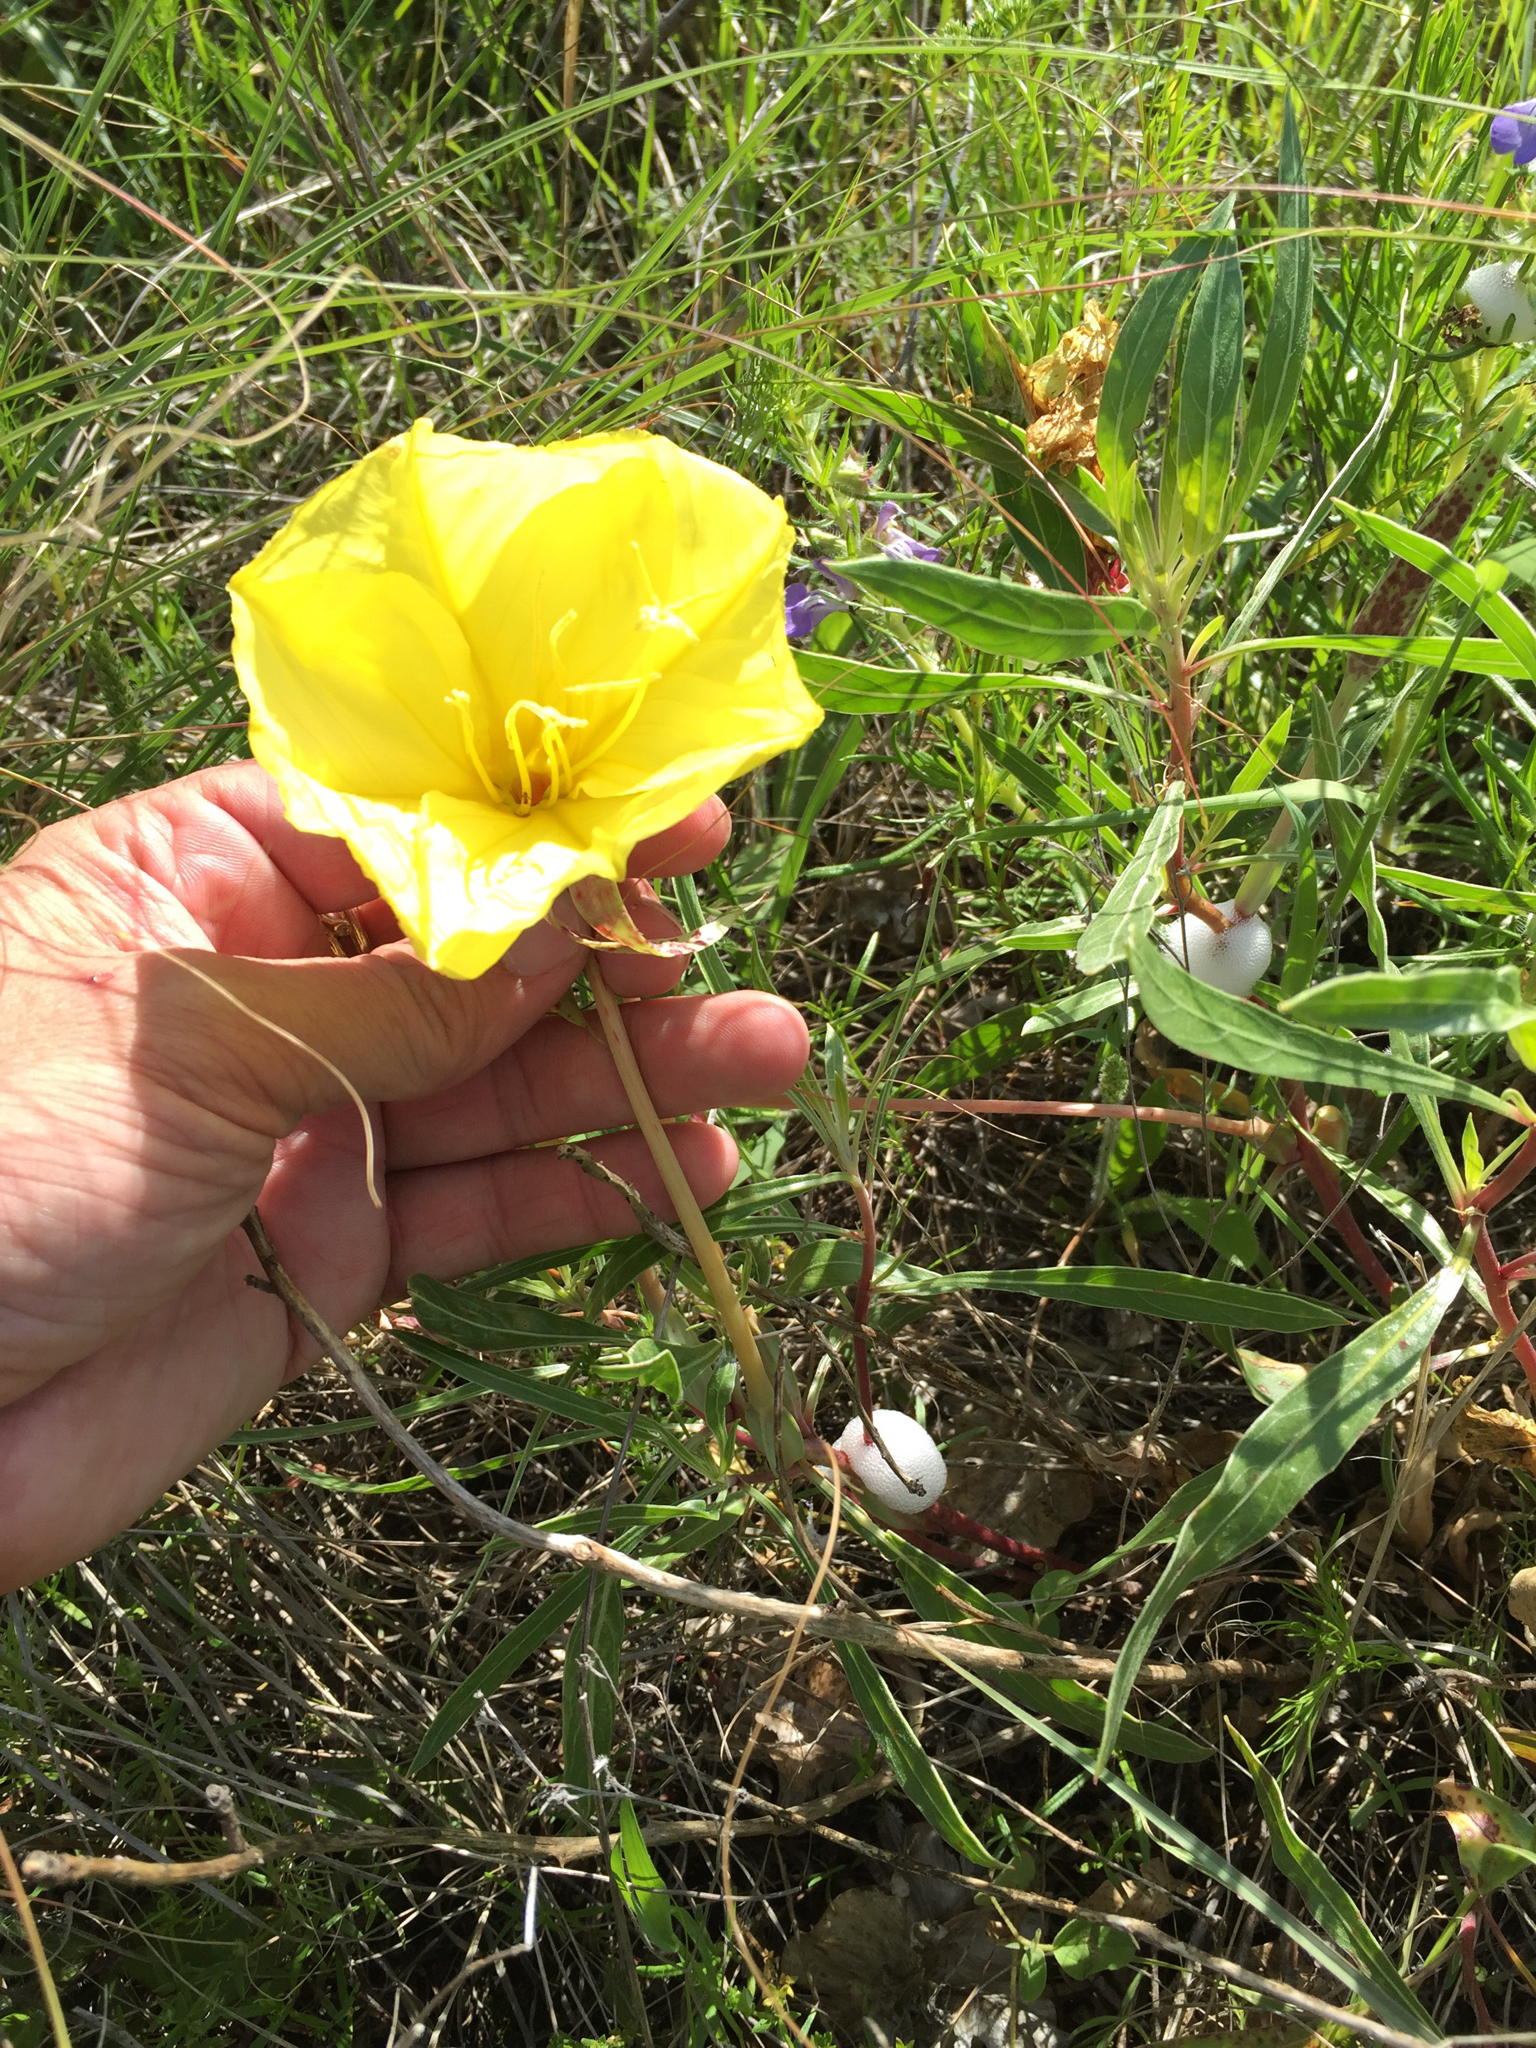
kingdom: Plantae
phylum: Tracheophyta
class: Magnoliopsida
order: Myrtales
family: Onagraceae
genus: Oenothera
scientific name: Oenothera macrocarpa
